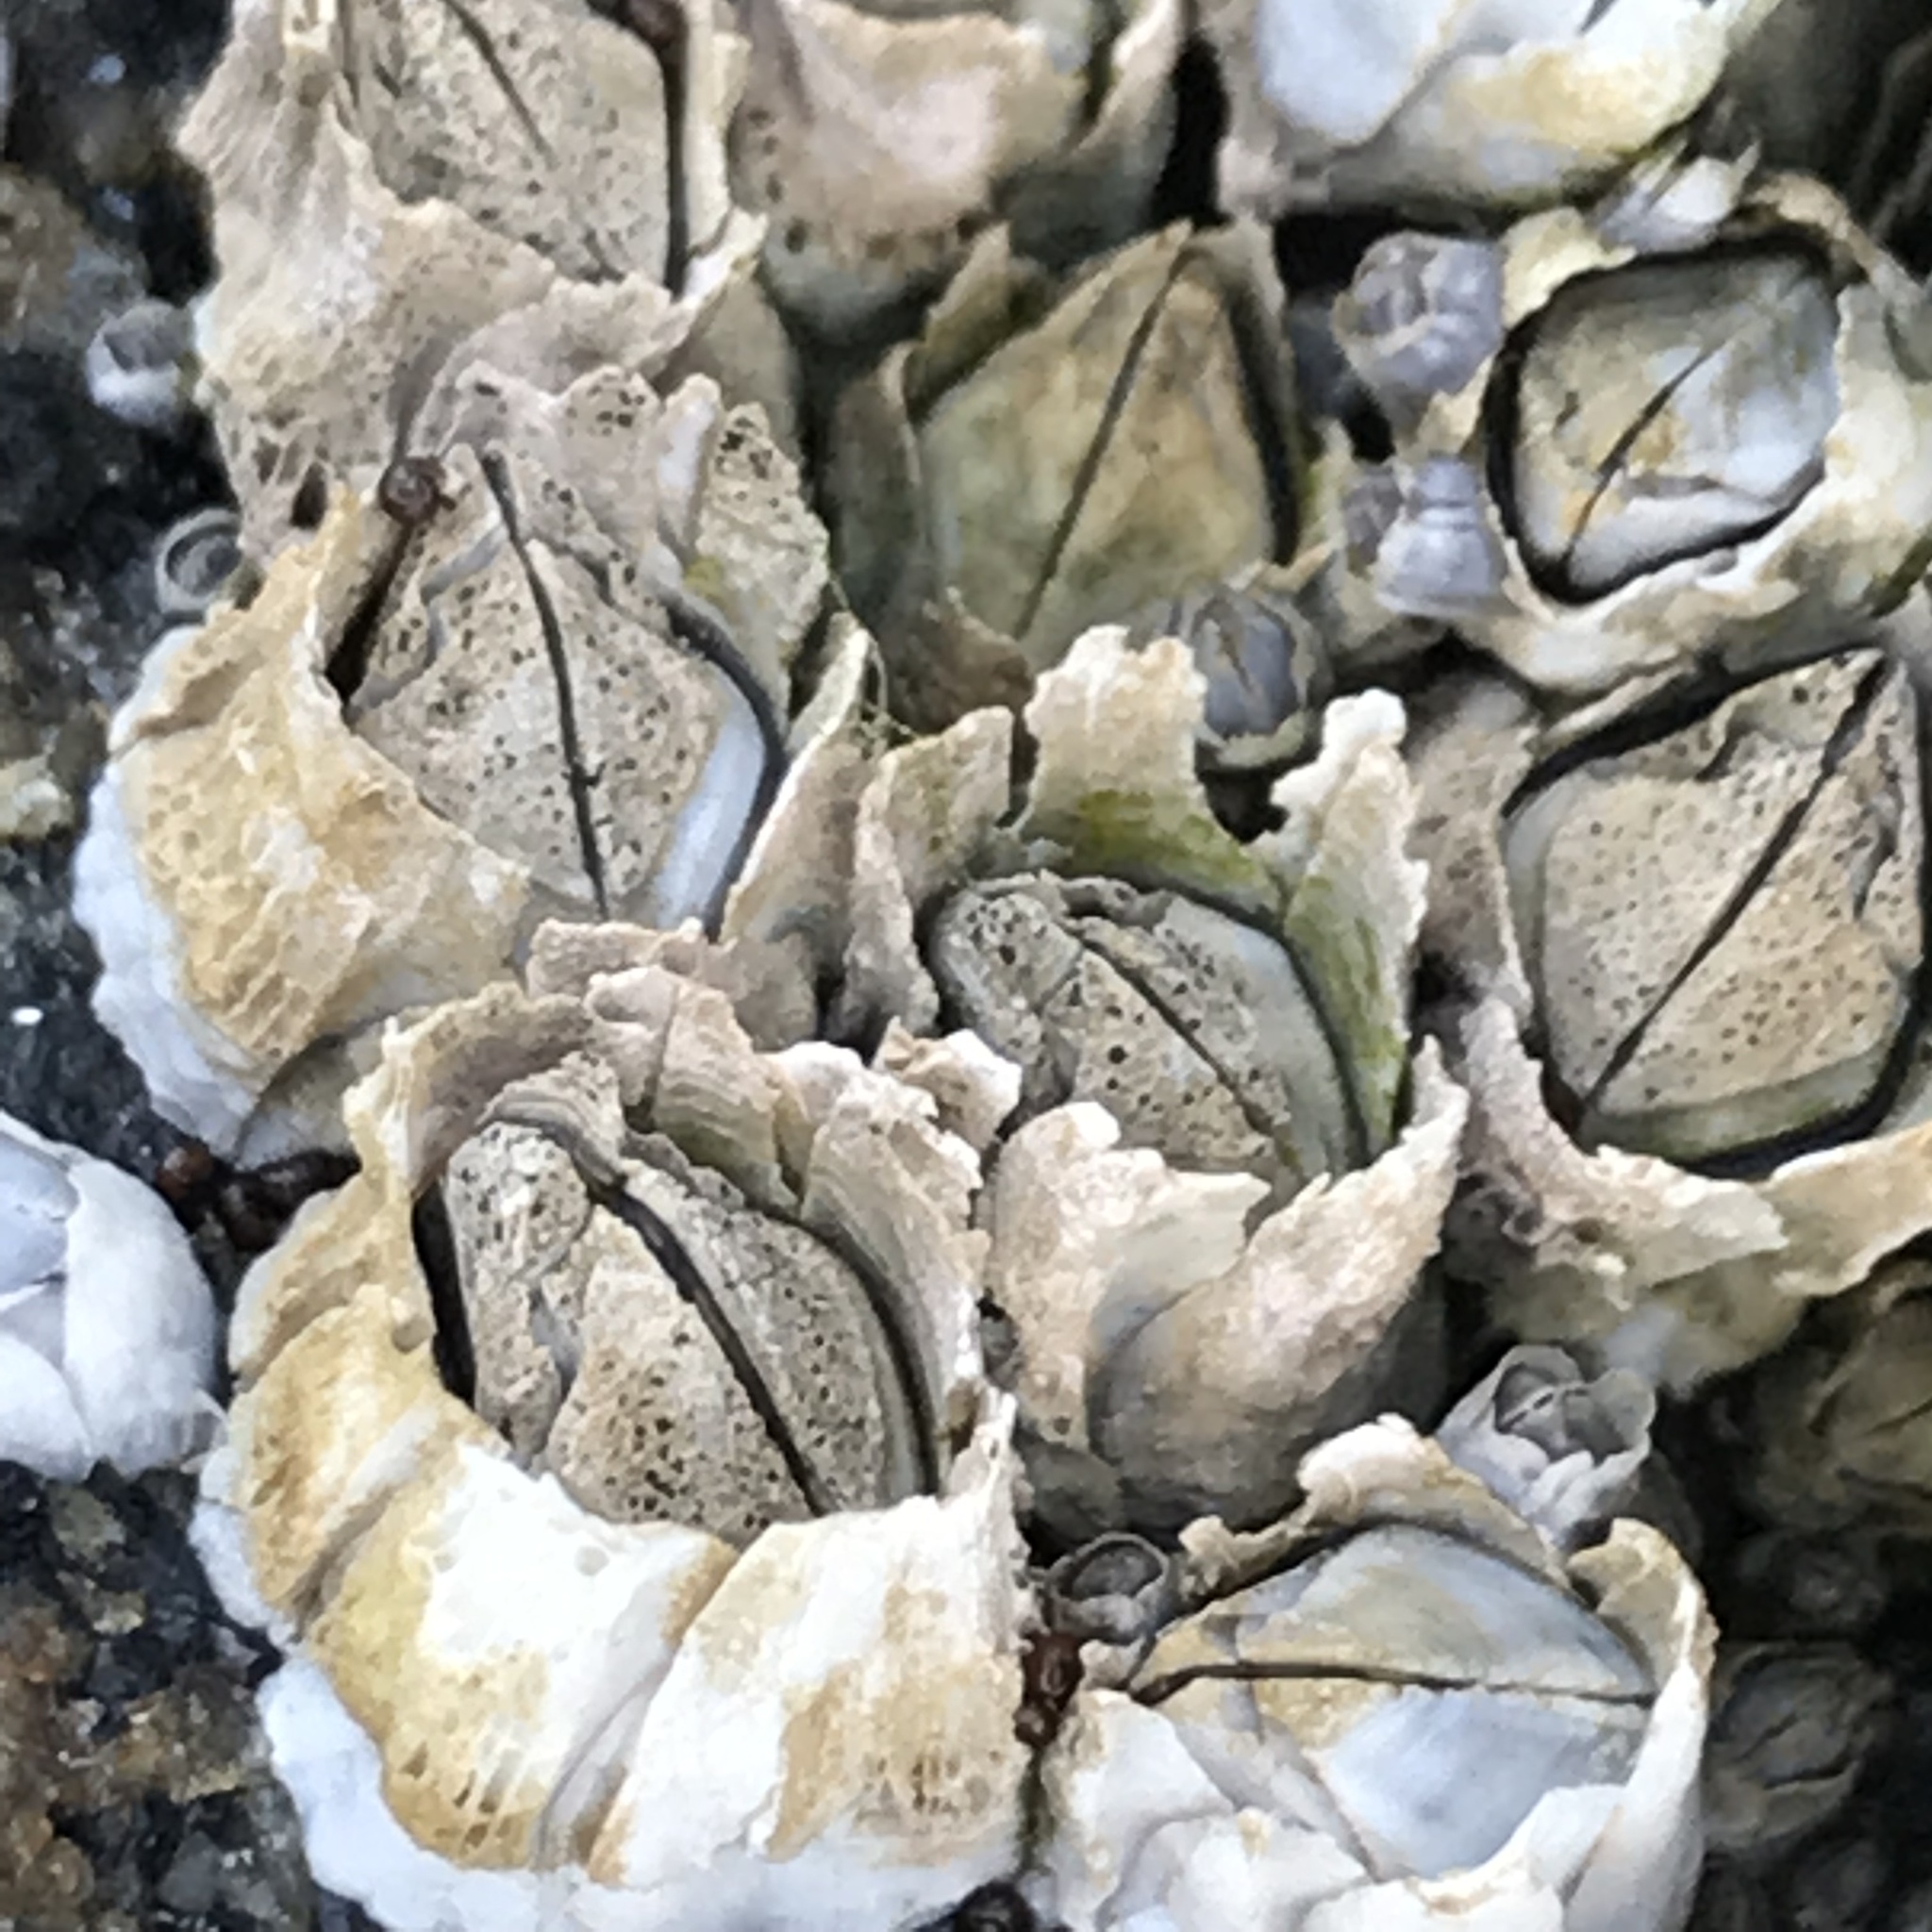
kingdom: Animalia
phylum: Arthropoda
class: Maxillopoda
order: Sessilia
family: Archaeobalanidae
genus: Semibalanus
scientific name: Semibalanus balanoides
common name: Acorn barnacle
